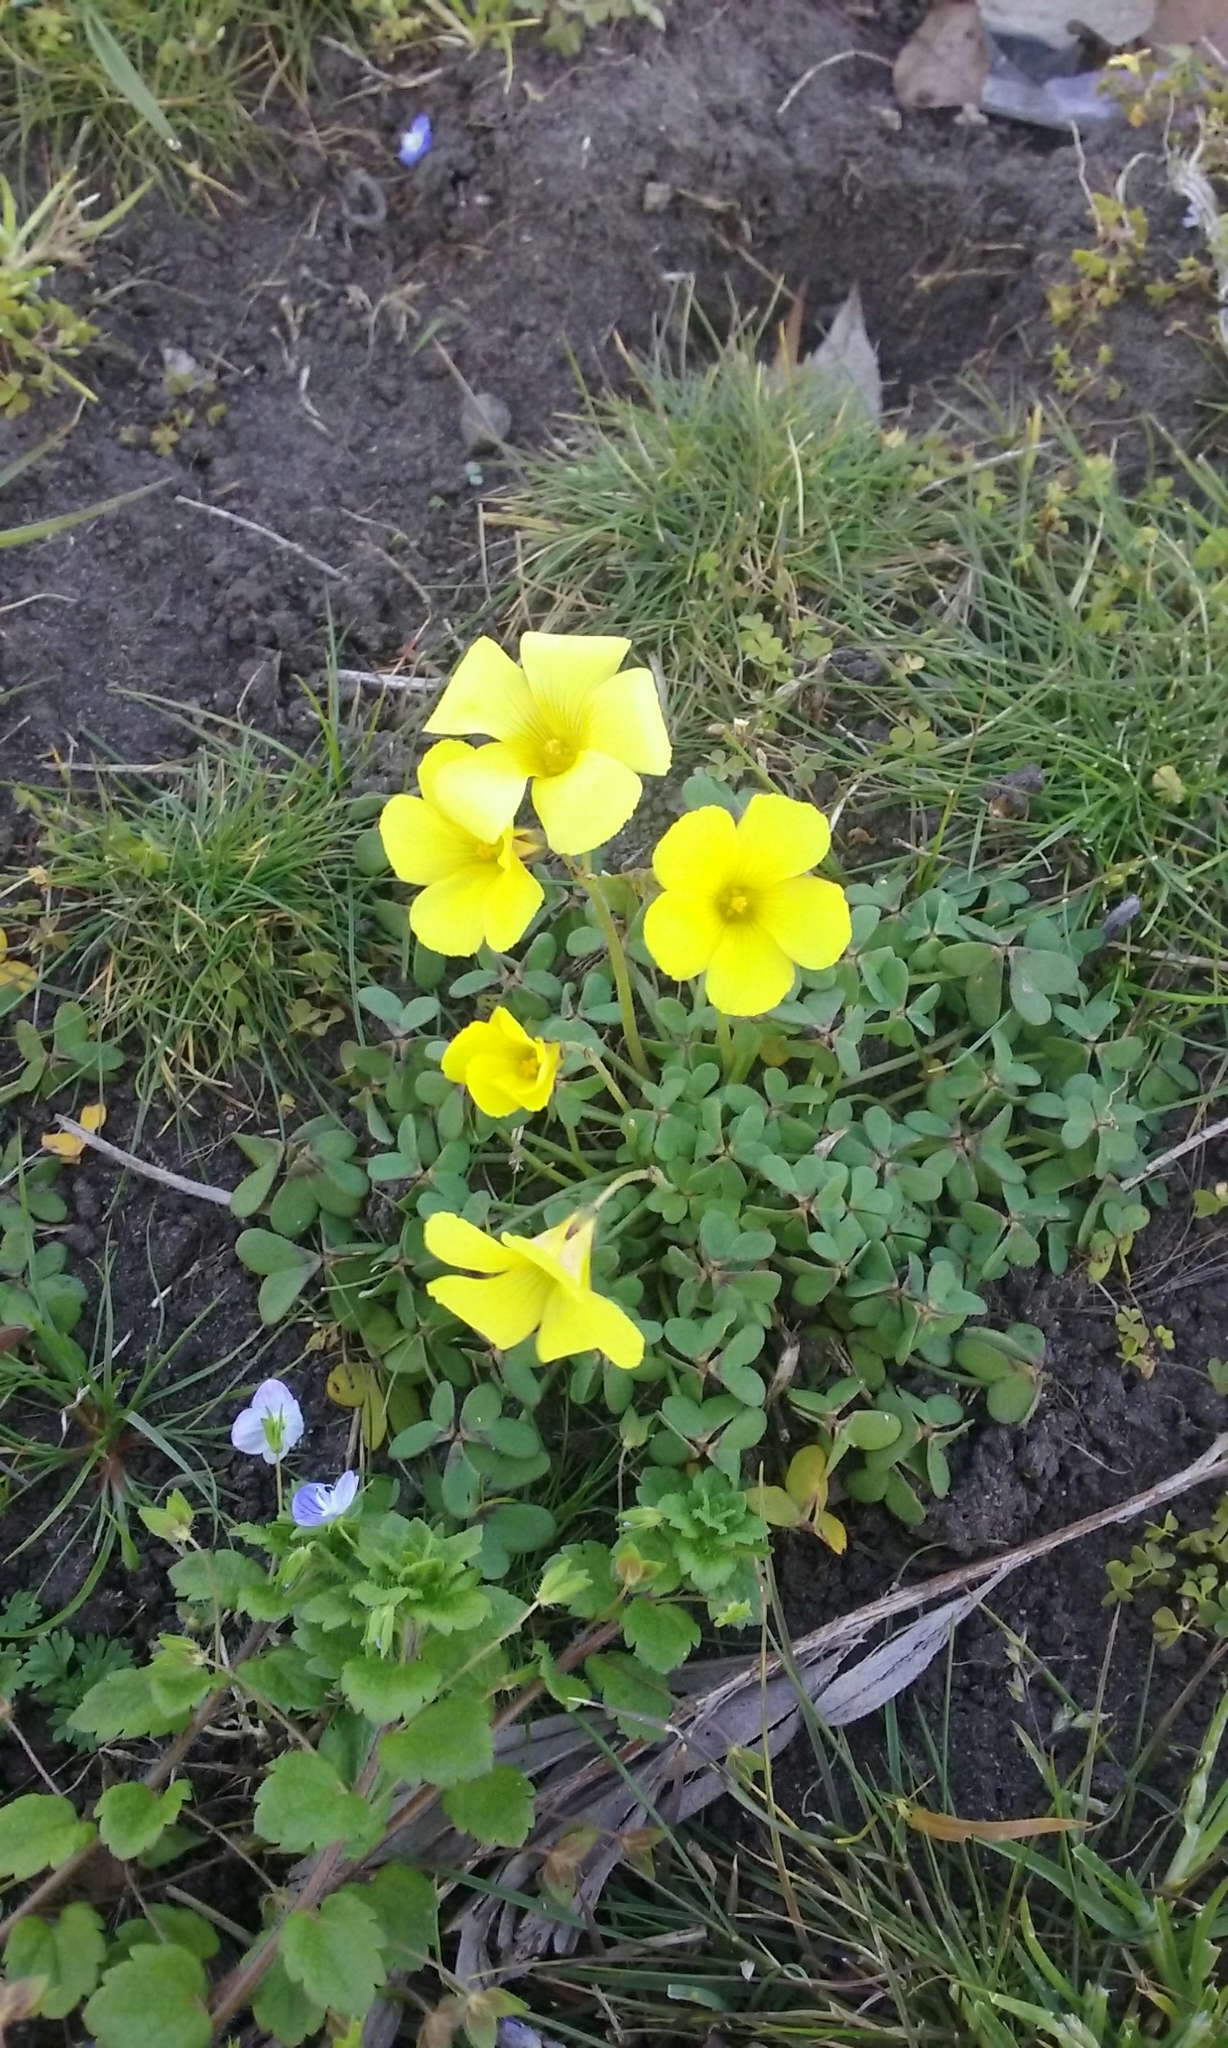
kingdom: Plantae
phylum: Tracheophyta
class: Magnoliopsida
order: Oxalidales
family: Oxalidaceae
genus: Oxalis
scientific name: Oxalis pes-caprae
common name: Bermuda-buttercup
